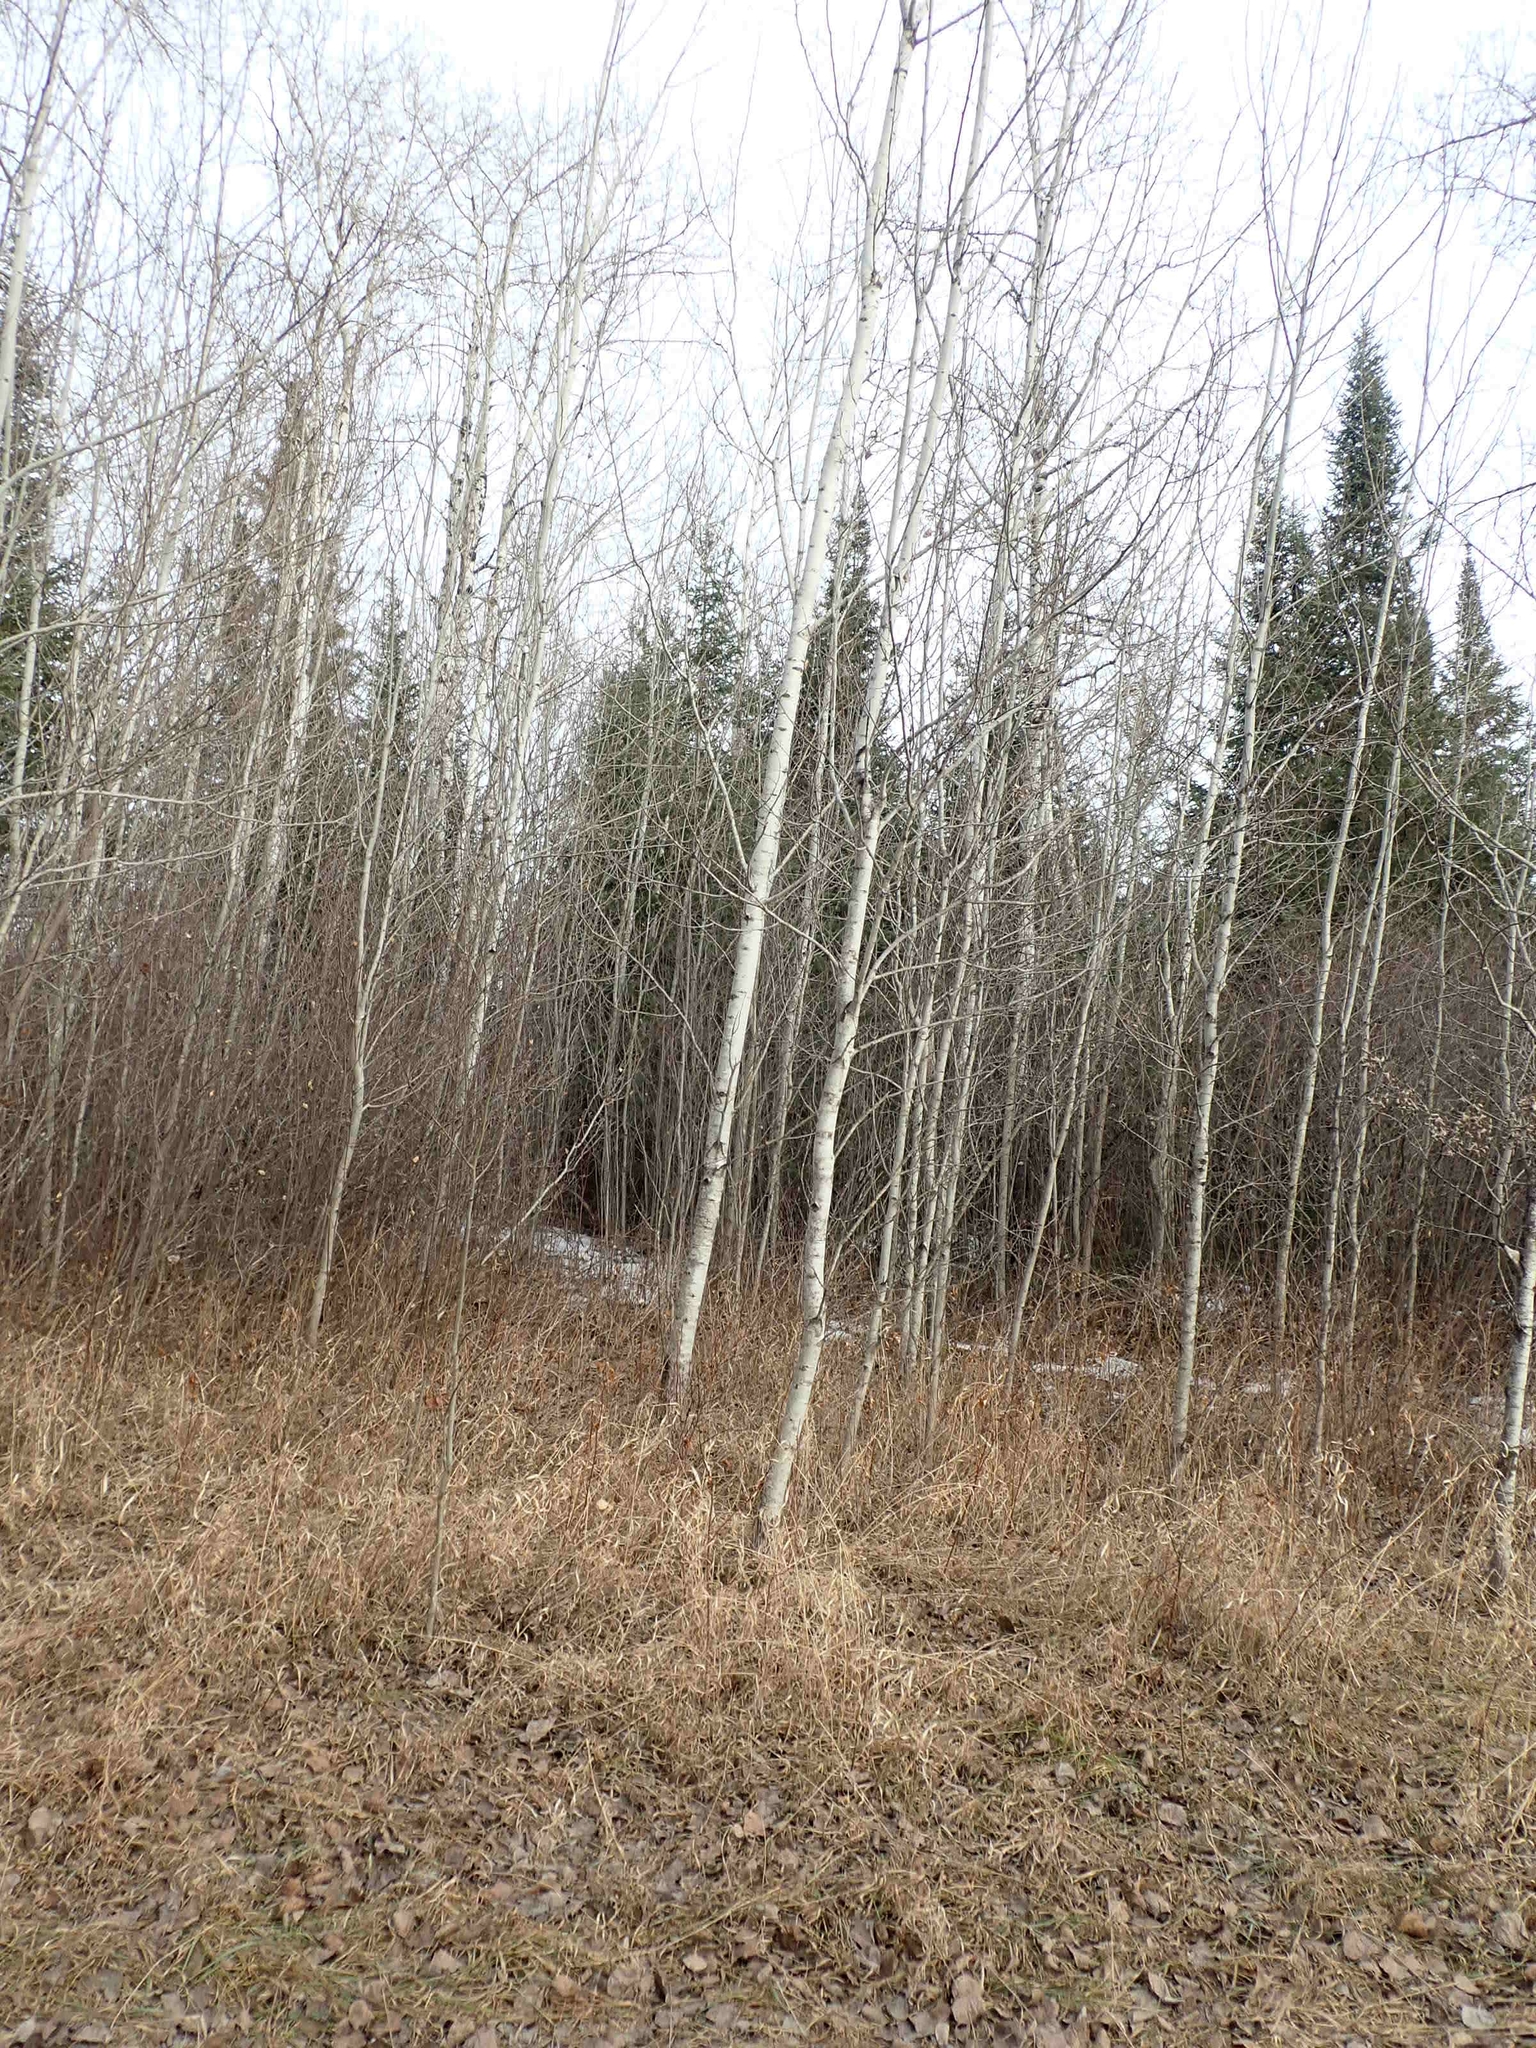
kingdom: Plantae
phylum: Tracheophyta
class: Magnoliopsida
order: Malpighiales
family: Salicaceae
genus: Populus
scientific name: Populus tremuloides
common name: Quaking aspen
